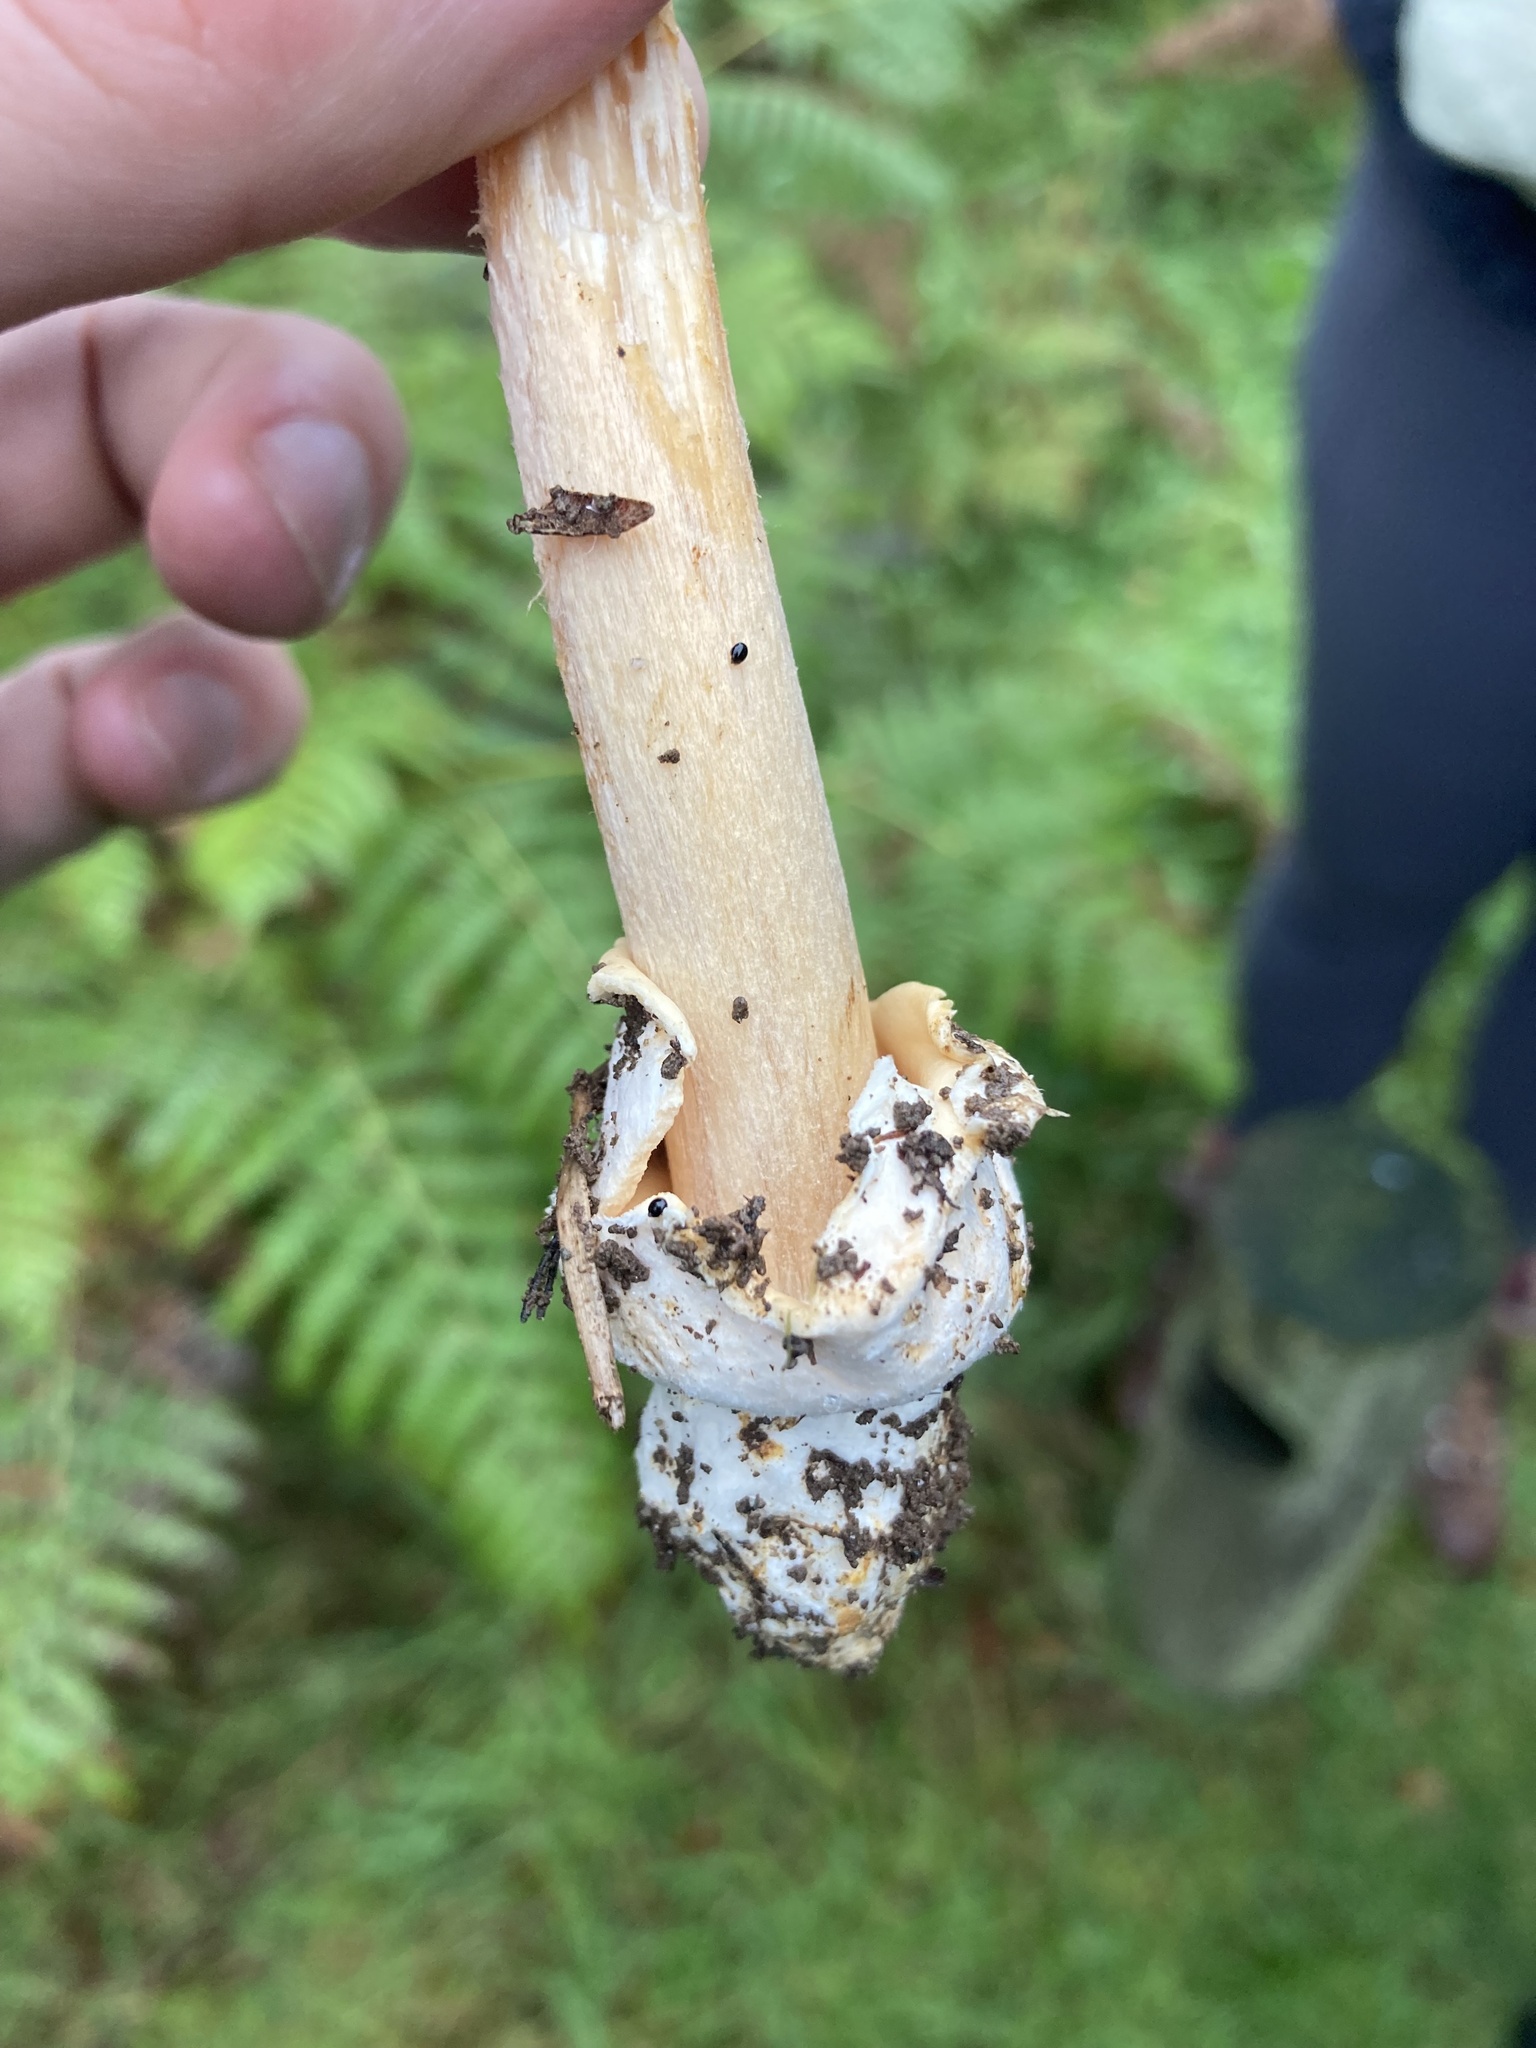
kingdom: Fungi
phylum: Basidiomycota
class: Agaricomycetes
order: Agaricales
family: Amanitaceae
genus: Amanita
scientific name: Amanita crocea
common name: Orange grisette
